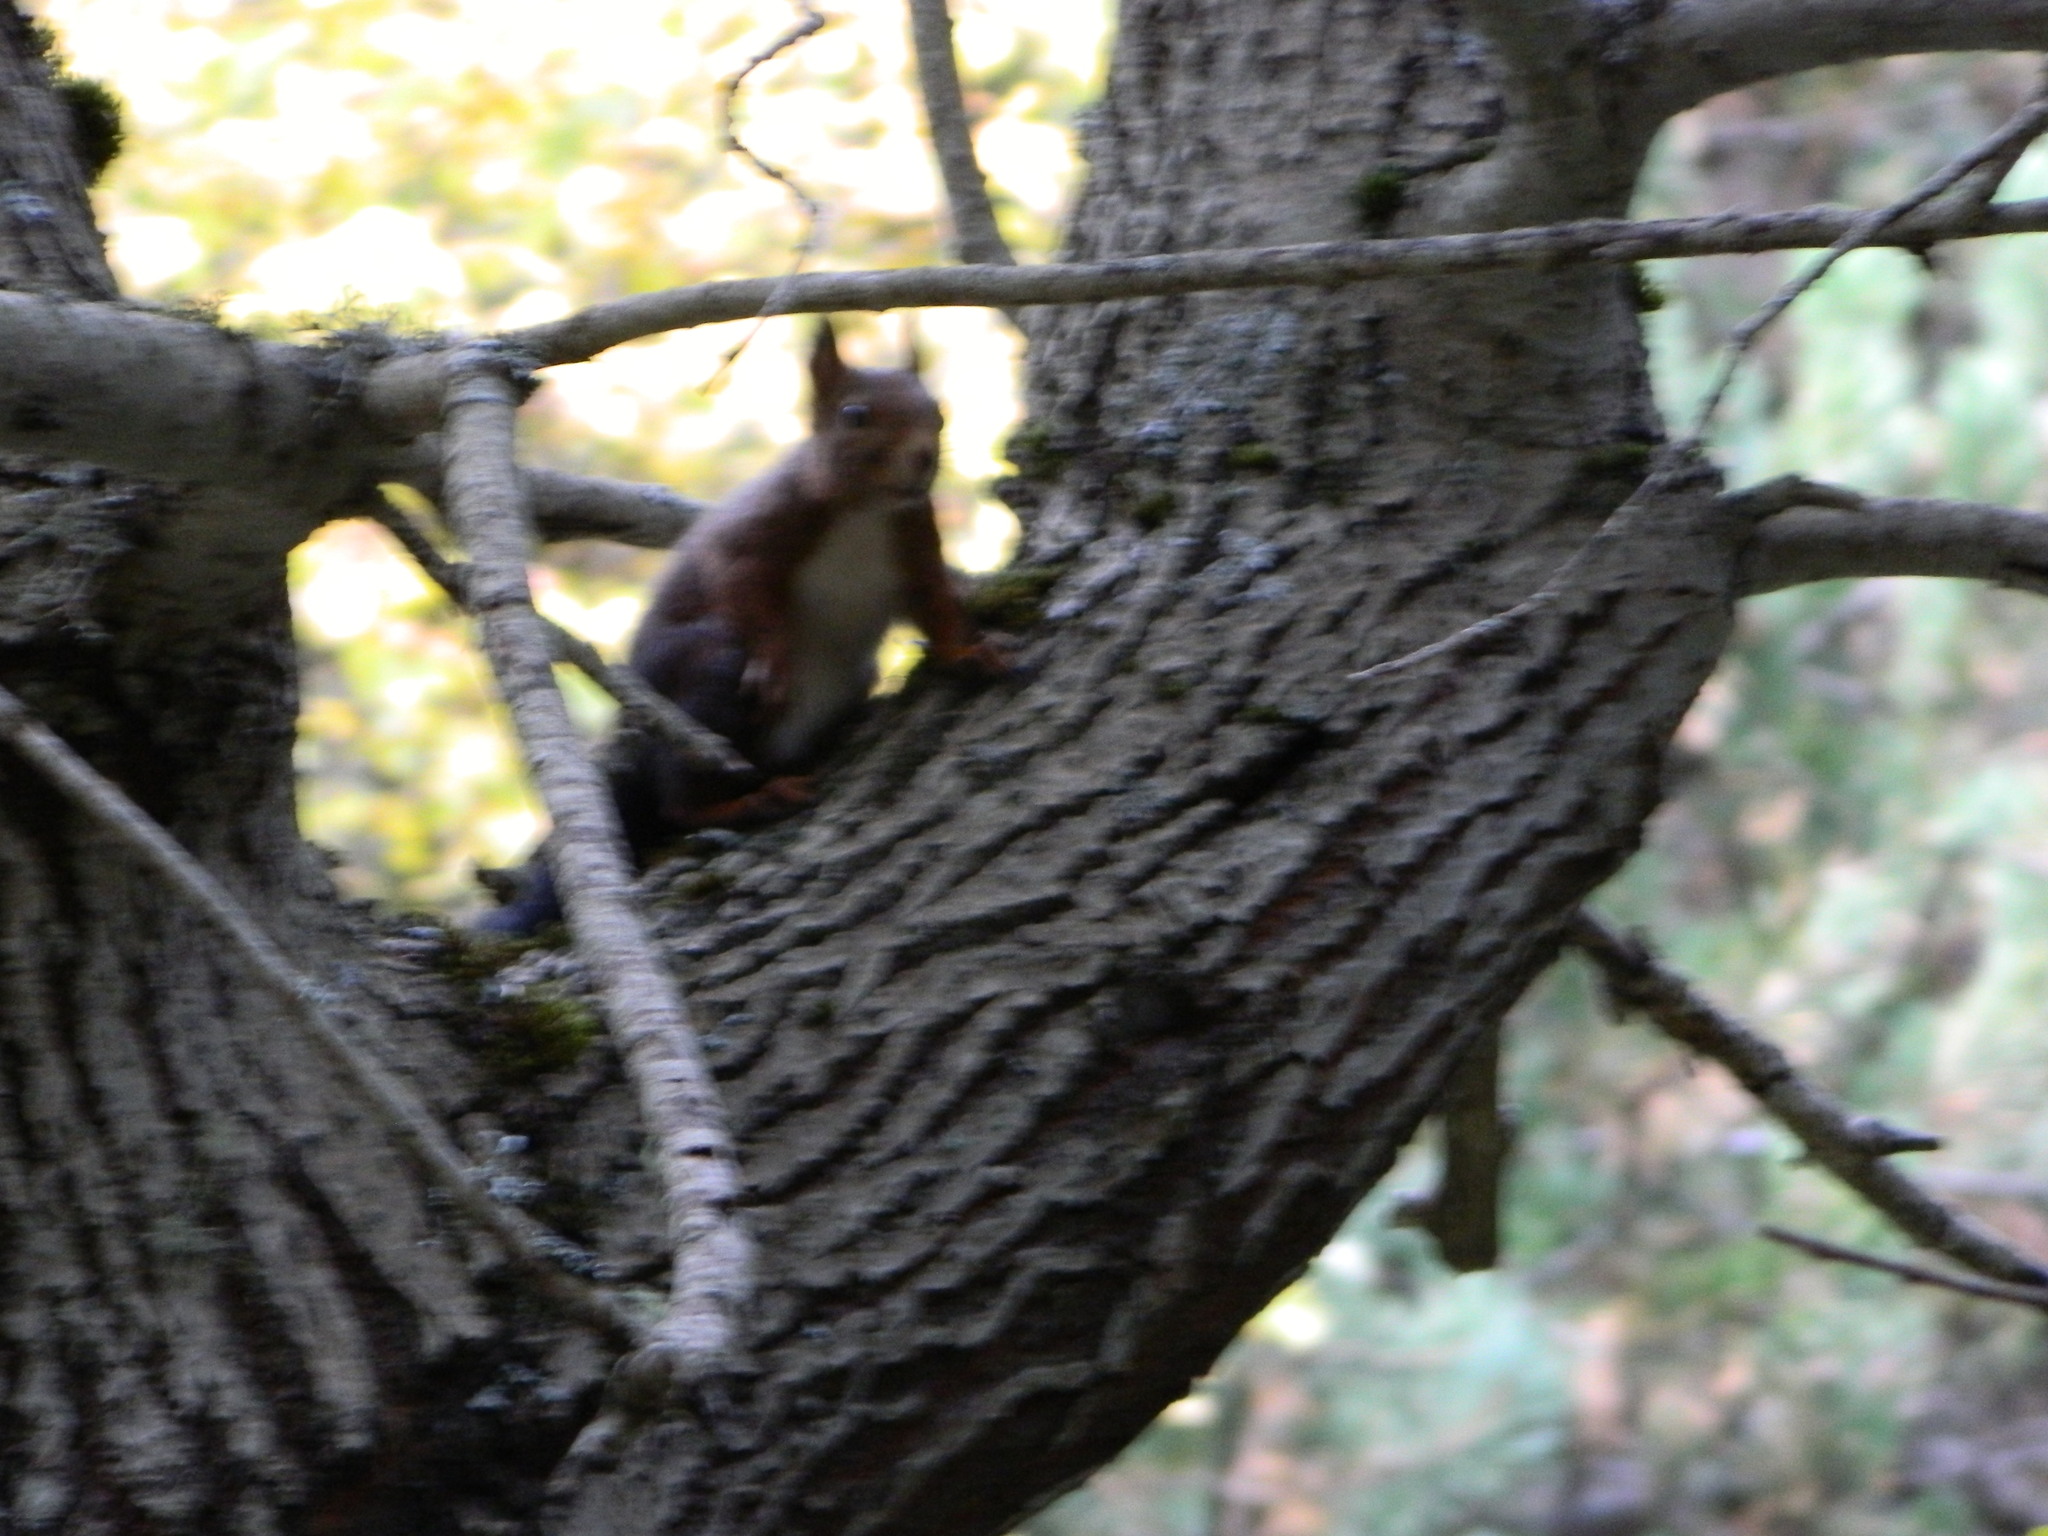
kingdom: Animalia
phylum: Chordata
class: Mammalia
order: Rodentia
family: Sciuridae
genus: Sciurus
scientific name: Sciurus vulgaris
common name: Eurasian red squirrel
